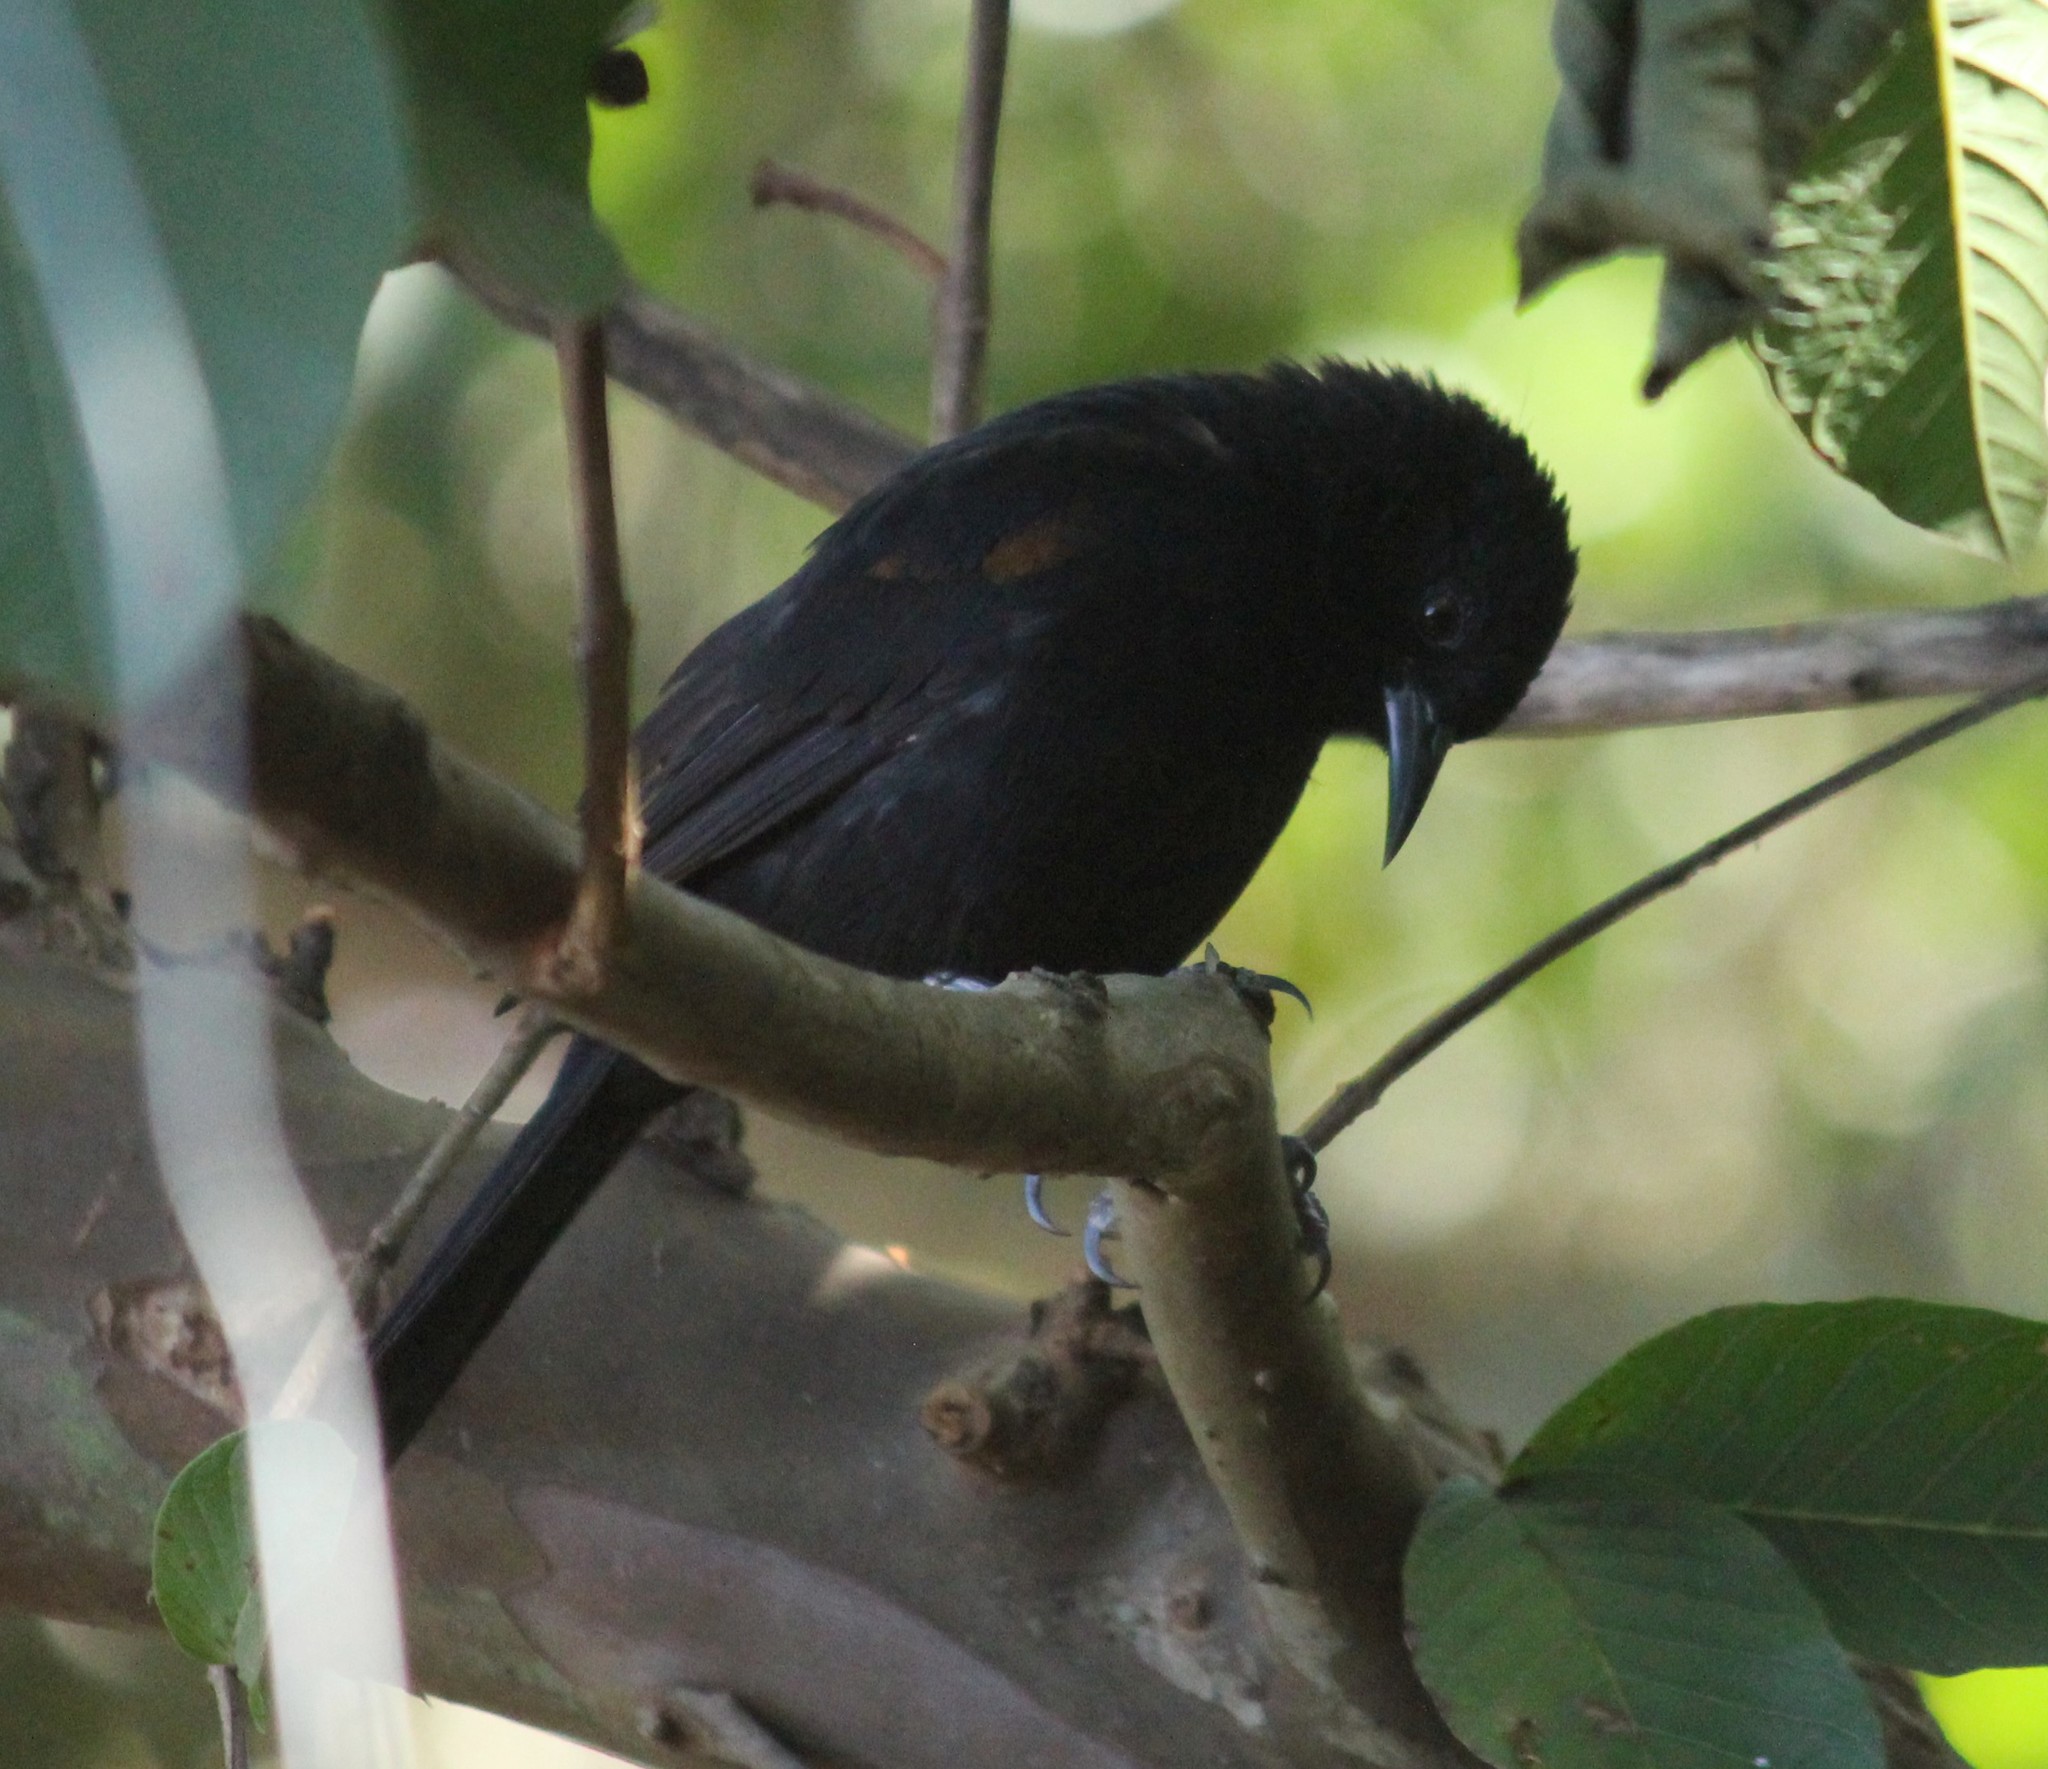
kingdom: Animalia
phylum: Chordata
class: Aves
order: Passeriformes
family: Icteridae
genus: Icterus
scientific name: Icterus cayanensis
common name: Epaulet oriole
